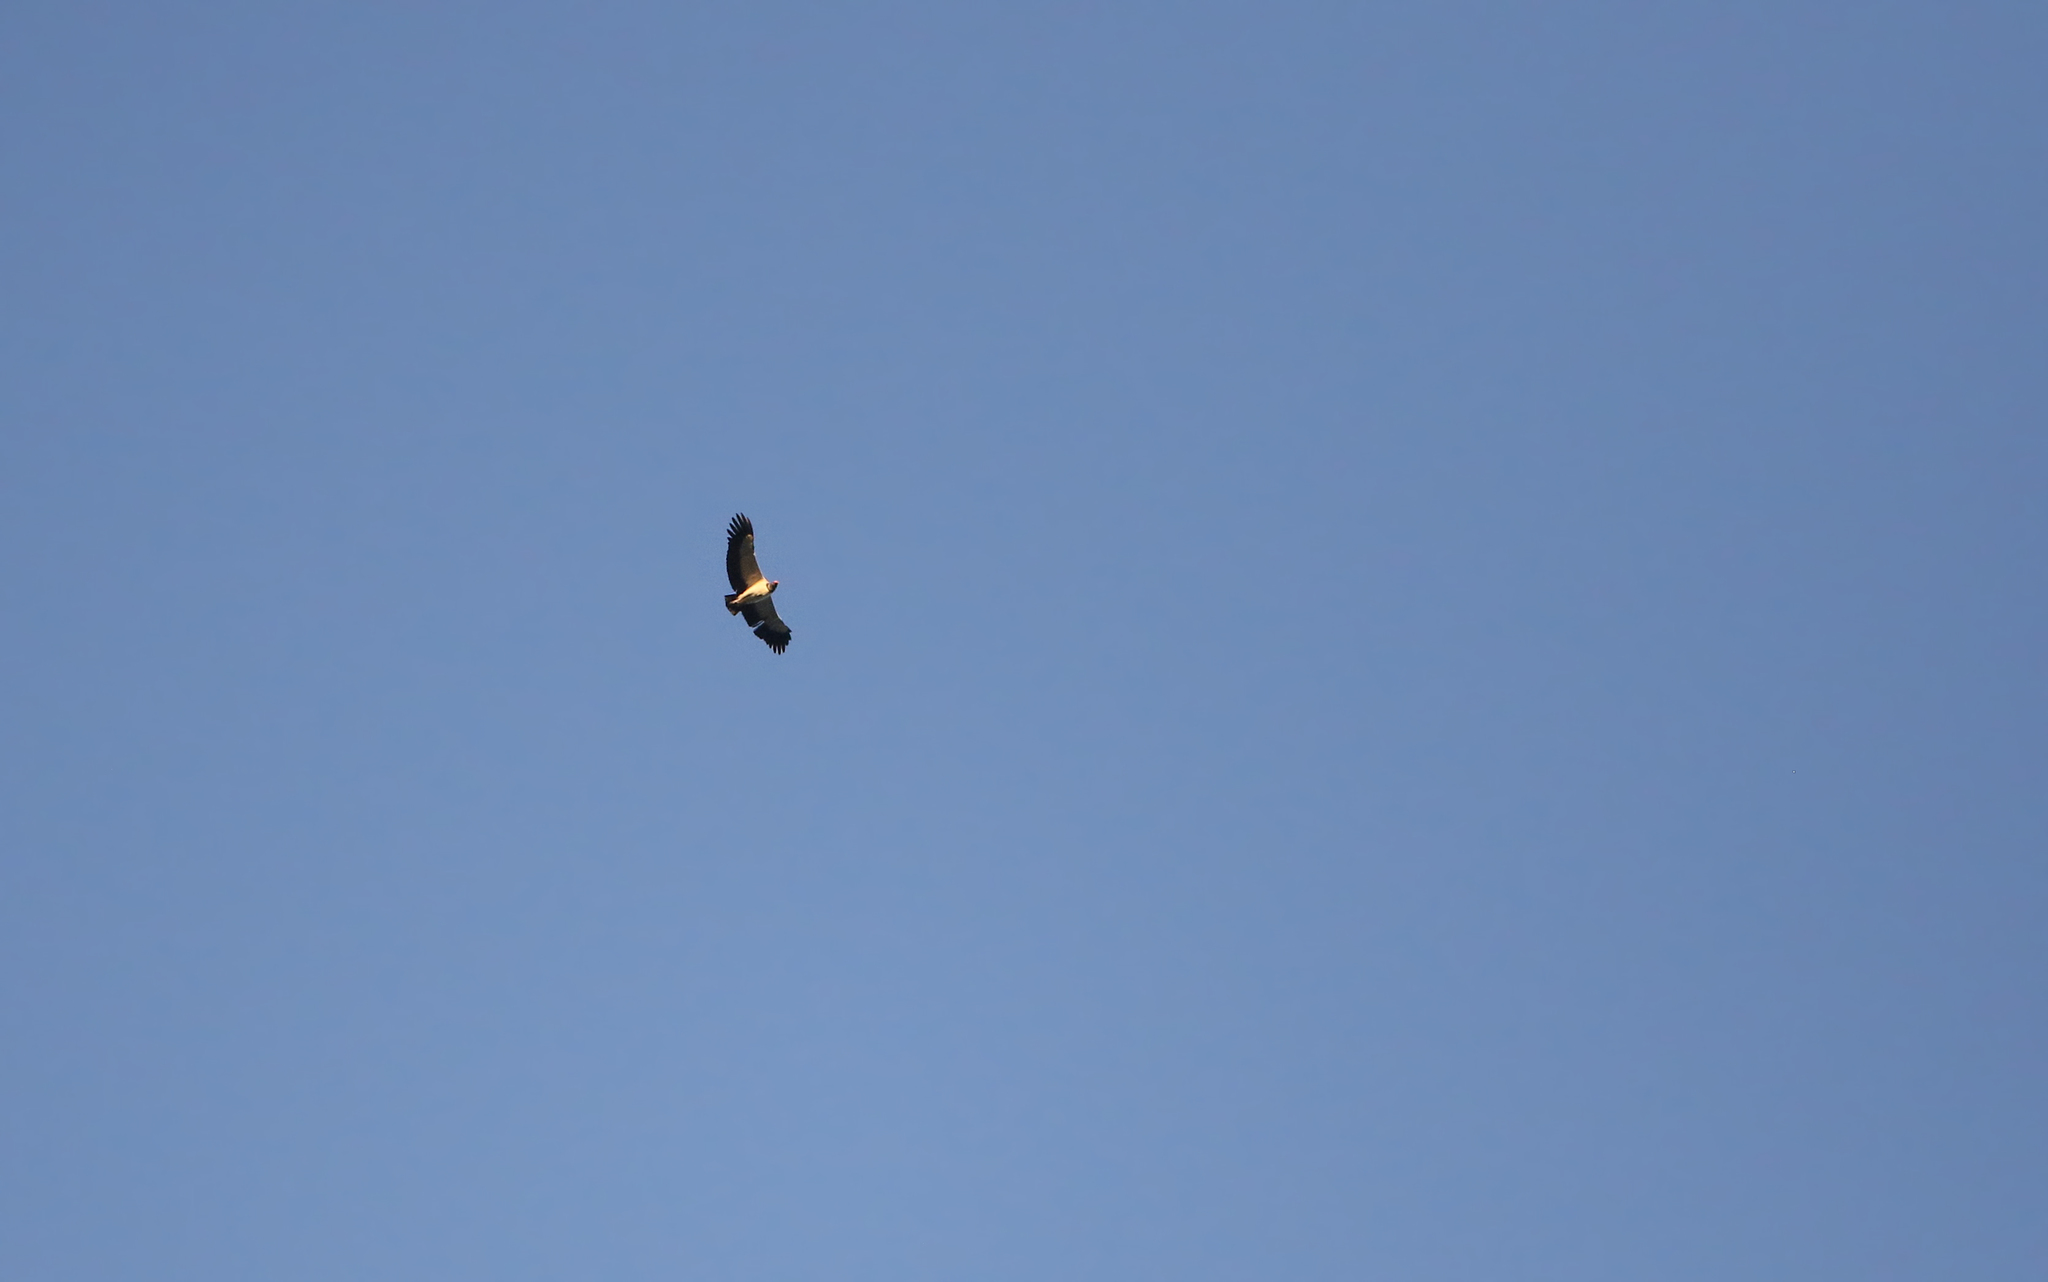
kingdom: Animalia
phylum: Chordata
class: Aves
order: Accipitriformes
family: Cathartidae
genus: Sarcoramphus
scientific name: Sarcoramphus papa
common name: King vulture
